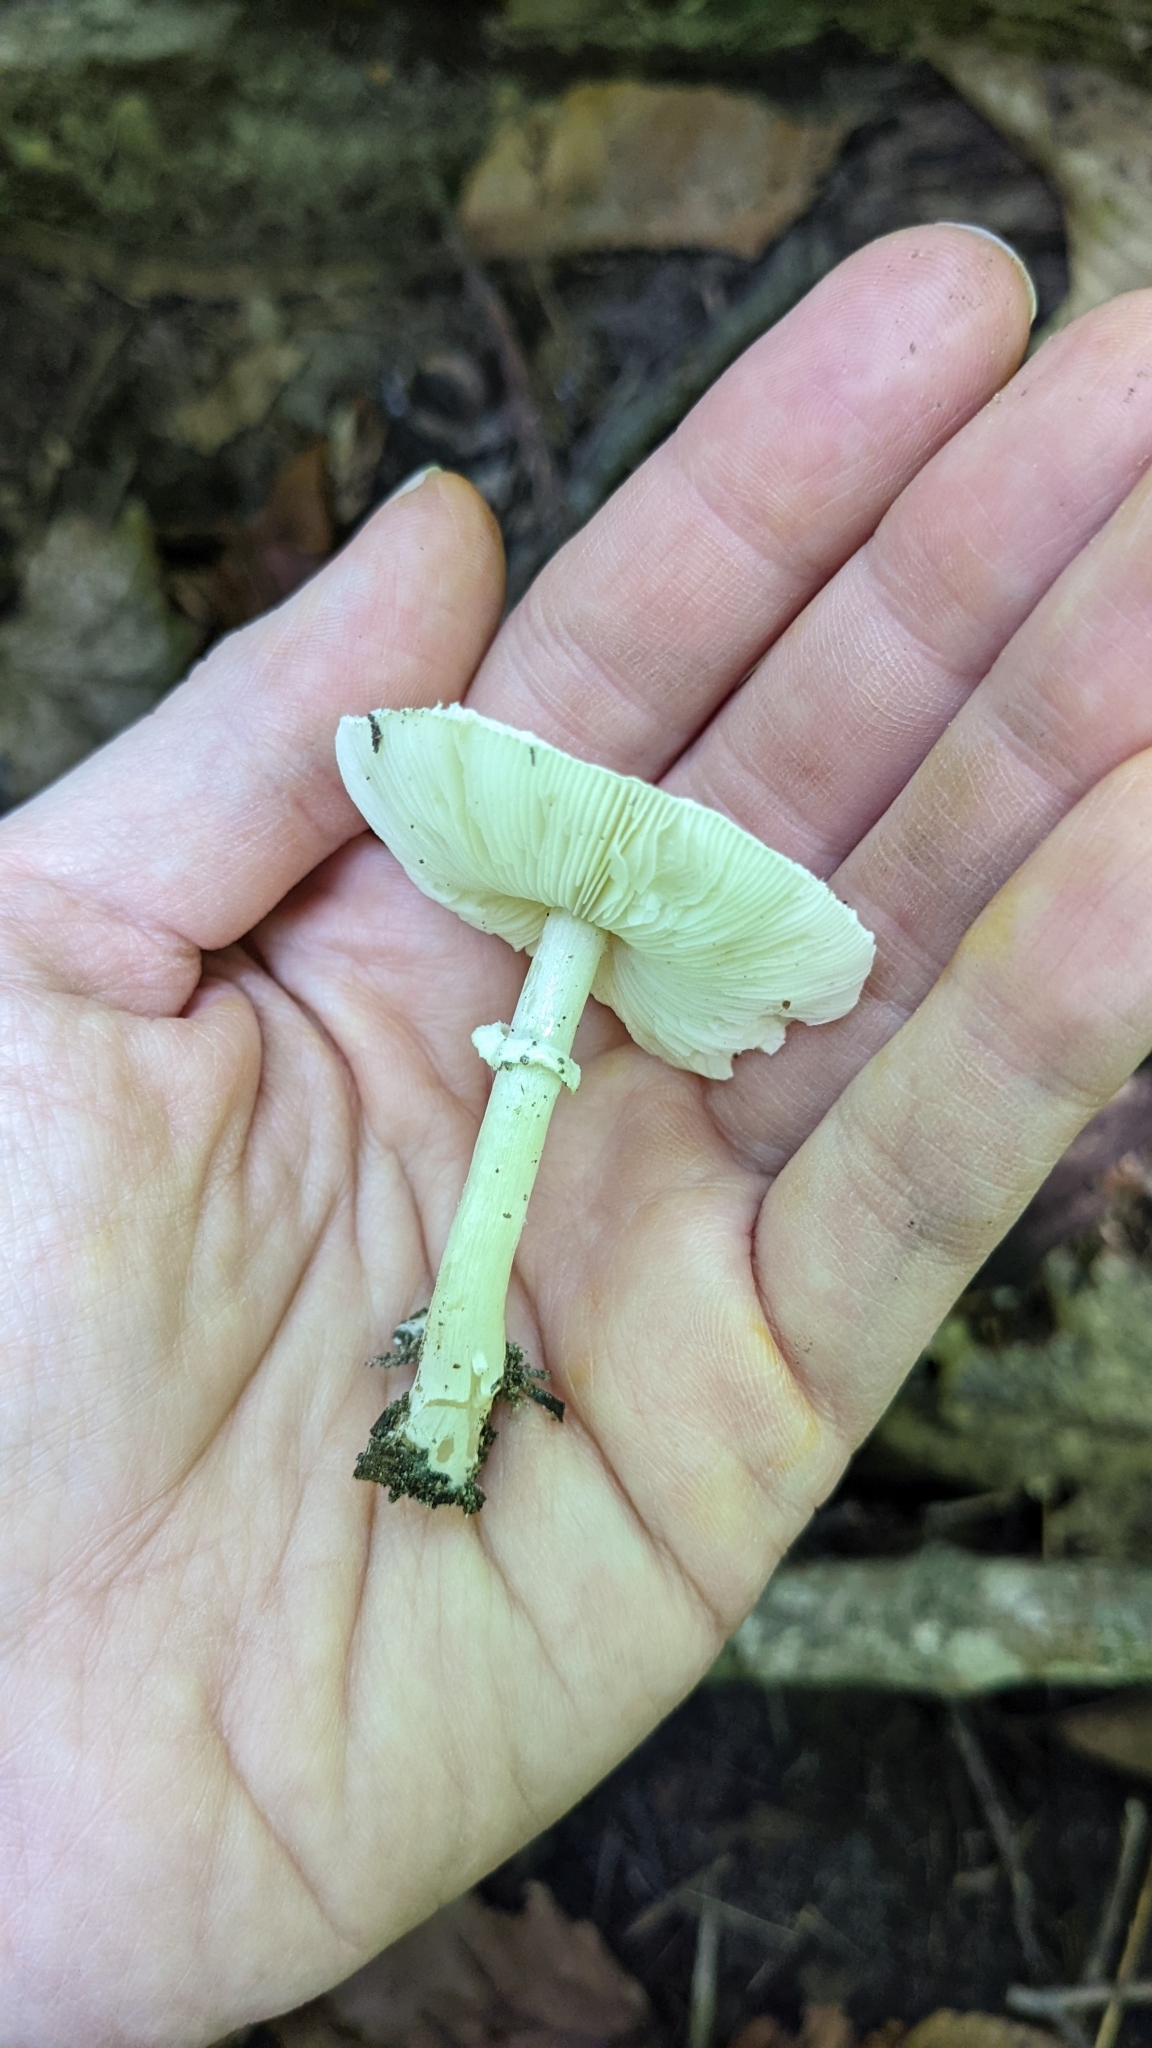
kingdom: Fungi
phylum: Basidiomycota
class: Agaricomycetes
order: Agaricales
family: Agaricaceae
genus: Leucoagaricus
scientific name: Leucoagaricus rubrotinctus
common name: Ruby dapperling
